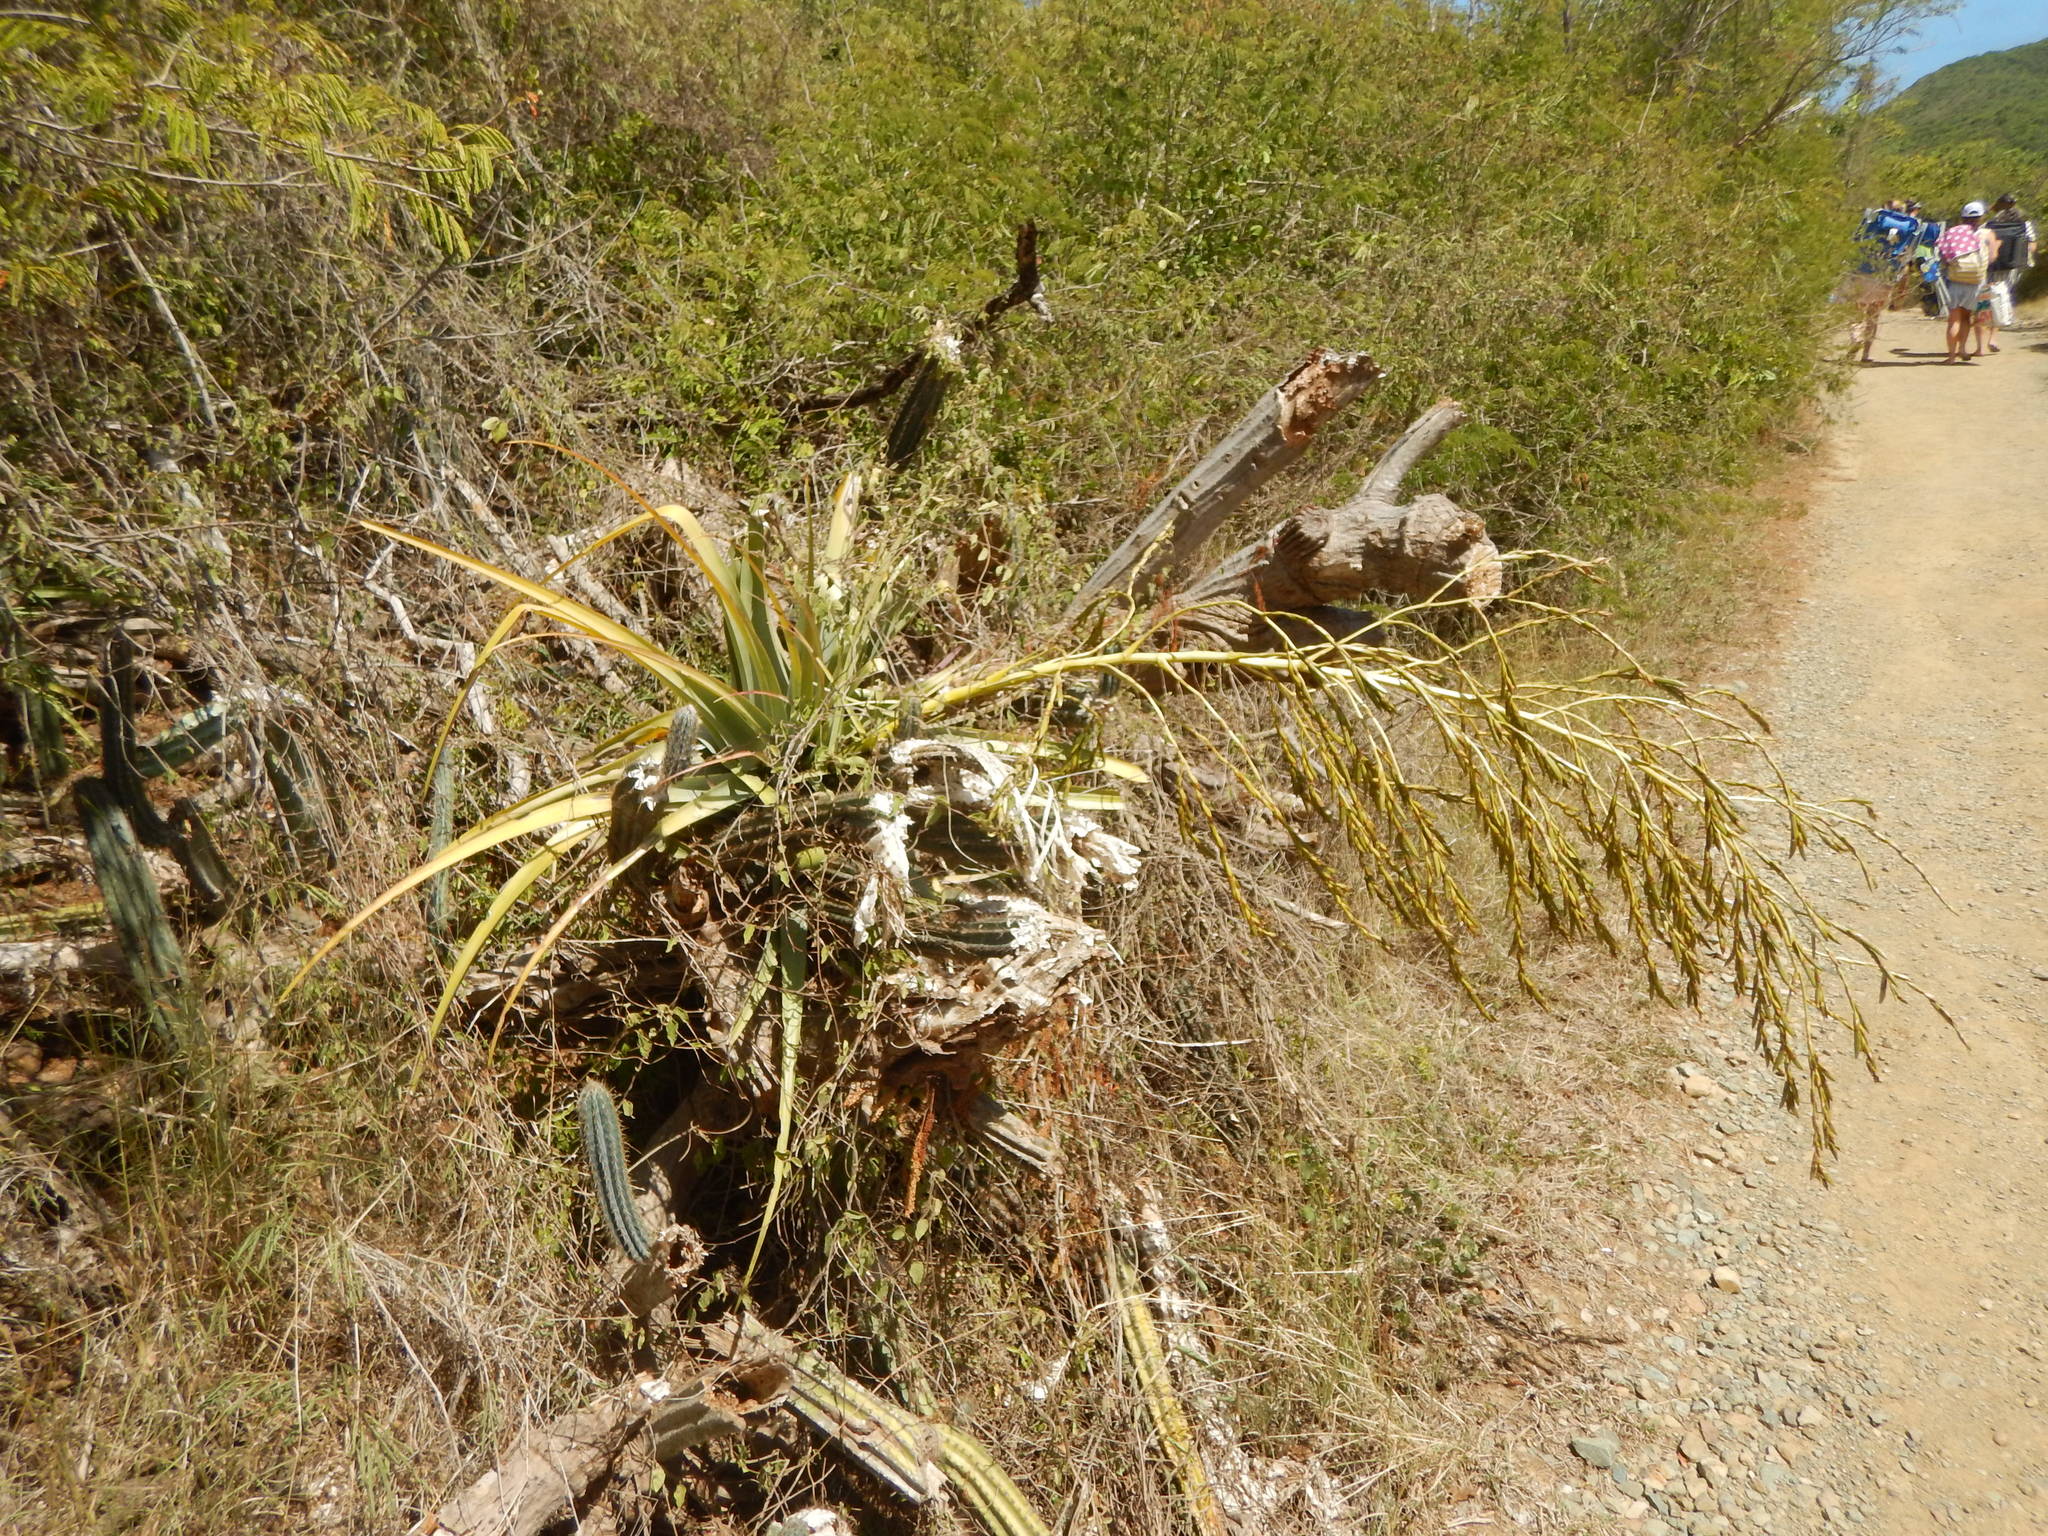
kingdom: Plantae
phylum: Tracheophyta
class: Liliopsida
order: Poales
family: Bromeliaceae
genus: Tillandsia
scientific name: Tillandsia utriculata
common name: Wild pine
